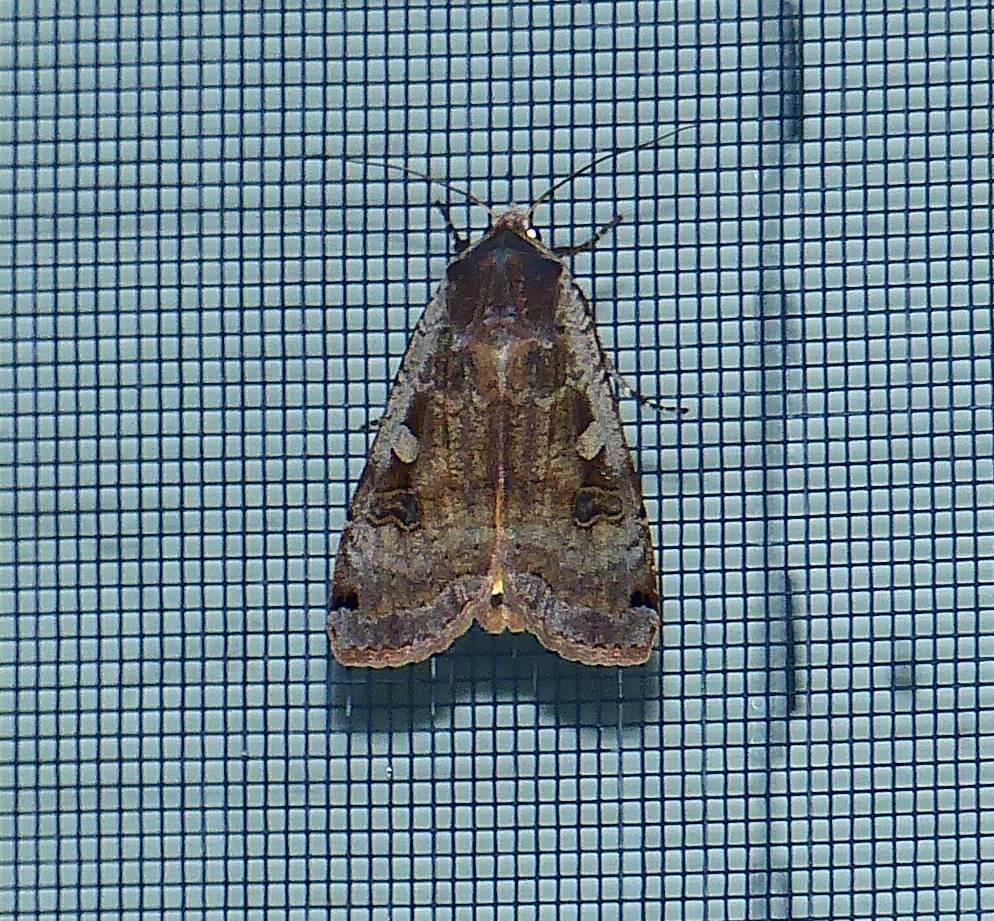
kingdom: Animalia
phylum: Arthropoda
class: Insecta
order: Lepidoptera
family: Noctuidae
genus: Noctua
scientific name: Noctua pronuba
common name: Large yellow underwing
